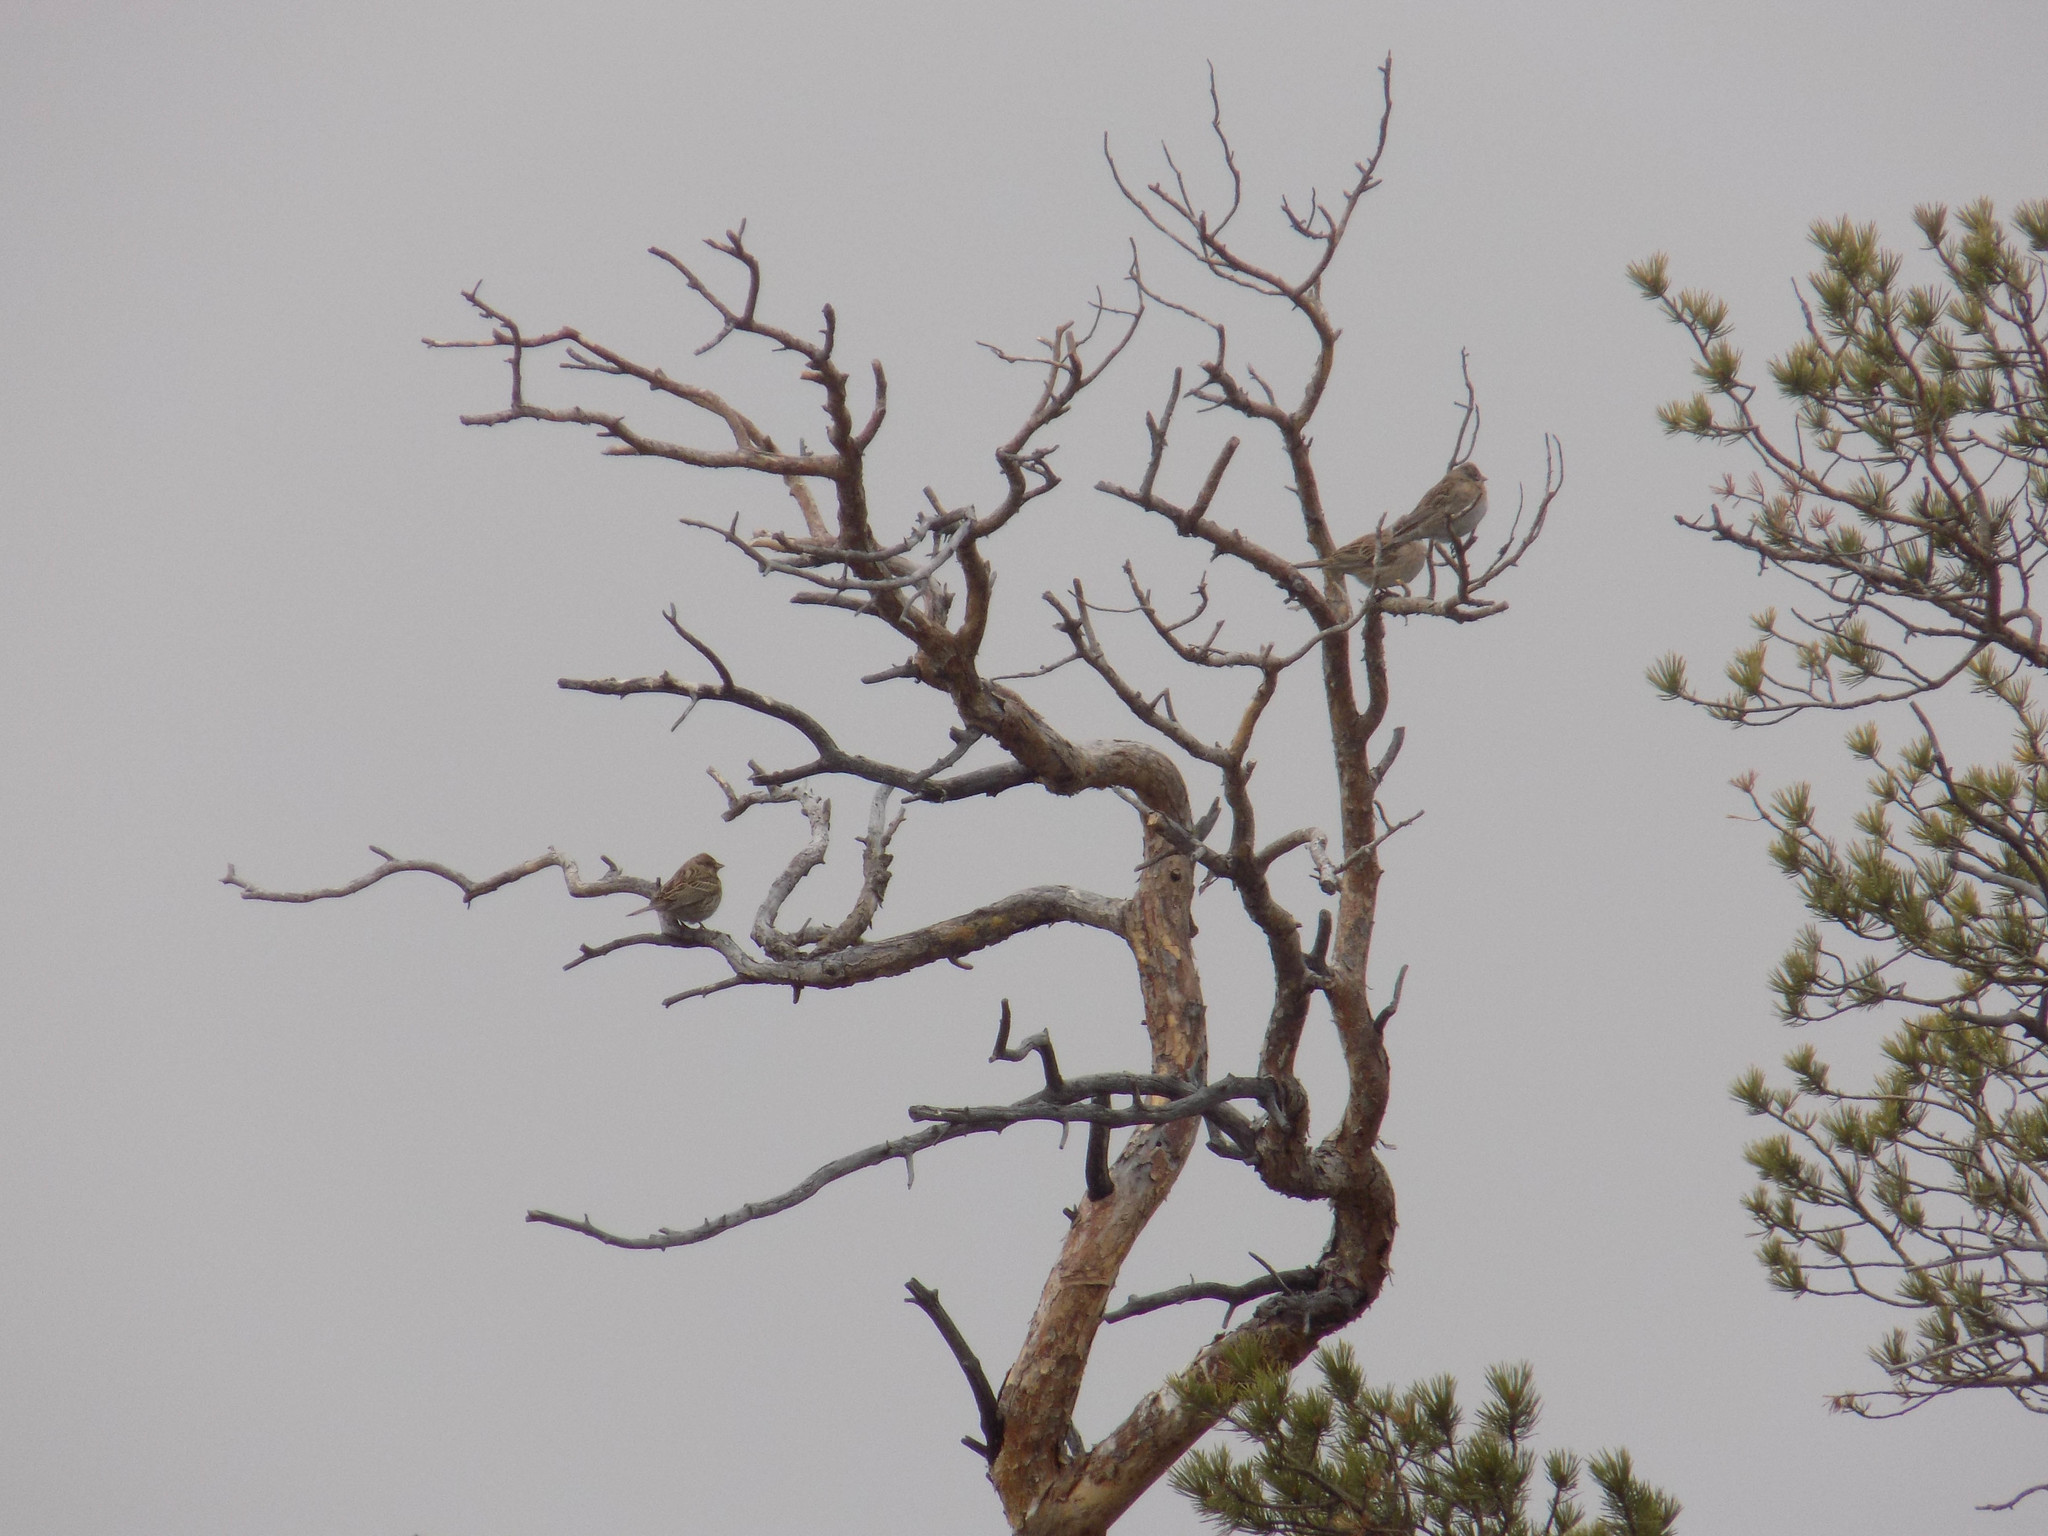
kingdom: Animalia
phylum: Chordata
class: Aves
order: Passeriformes
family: Emberizidae
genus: Emberiza
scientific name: Emberiza leucocephalos
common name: Pine bunting
